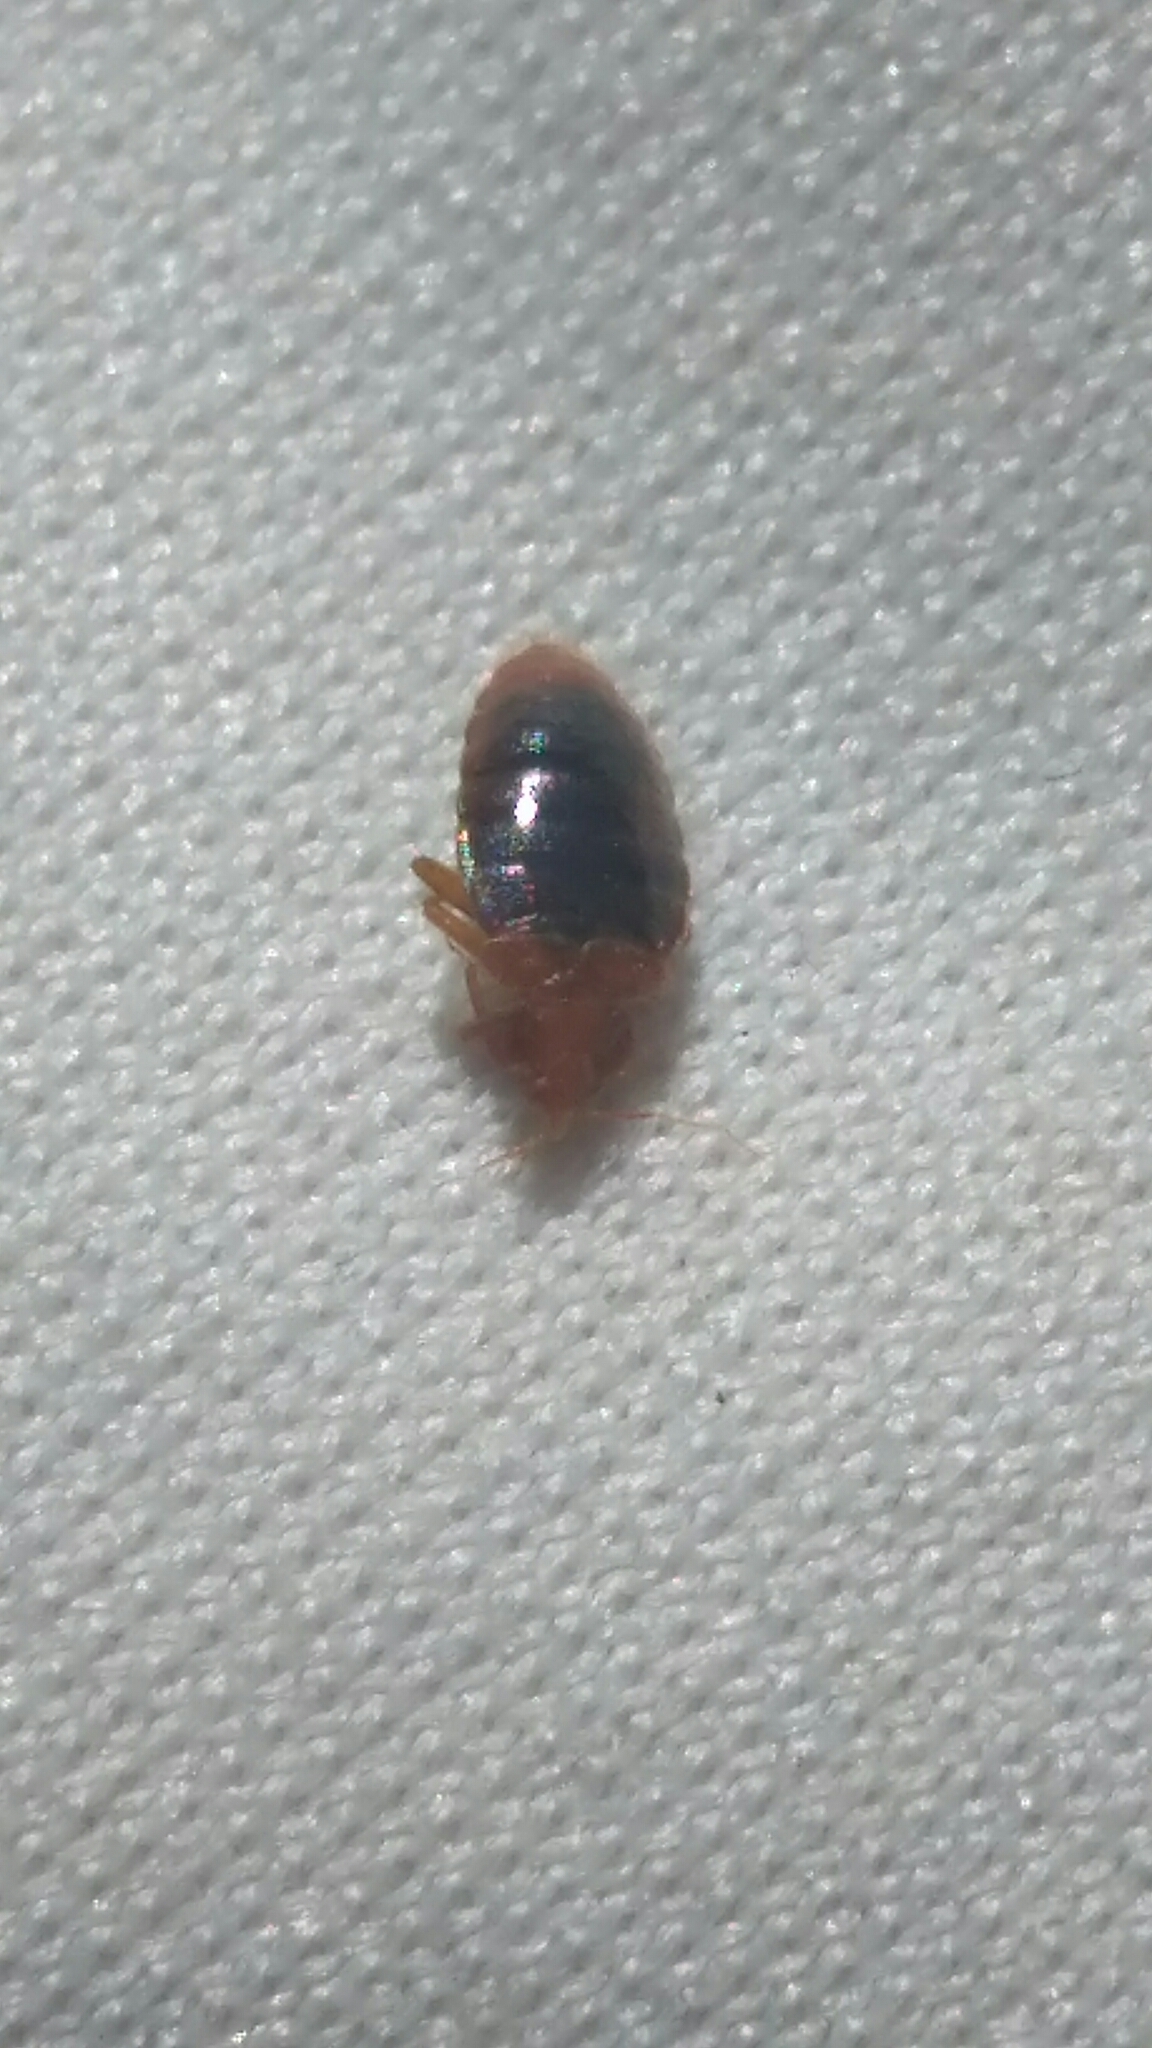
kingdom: Animalia
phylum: Arthropoda
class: Insecta
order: Hemiptera
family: Cimicidae
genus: Cimex
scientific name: Cimex lectularius
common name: Bed bug
